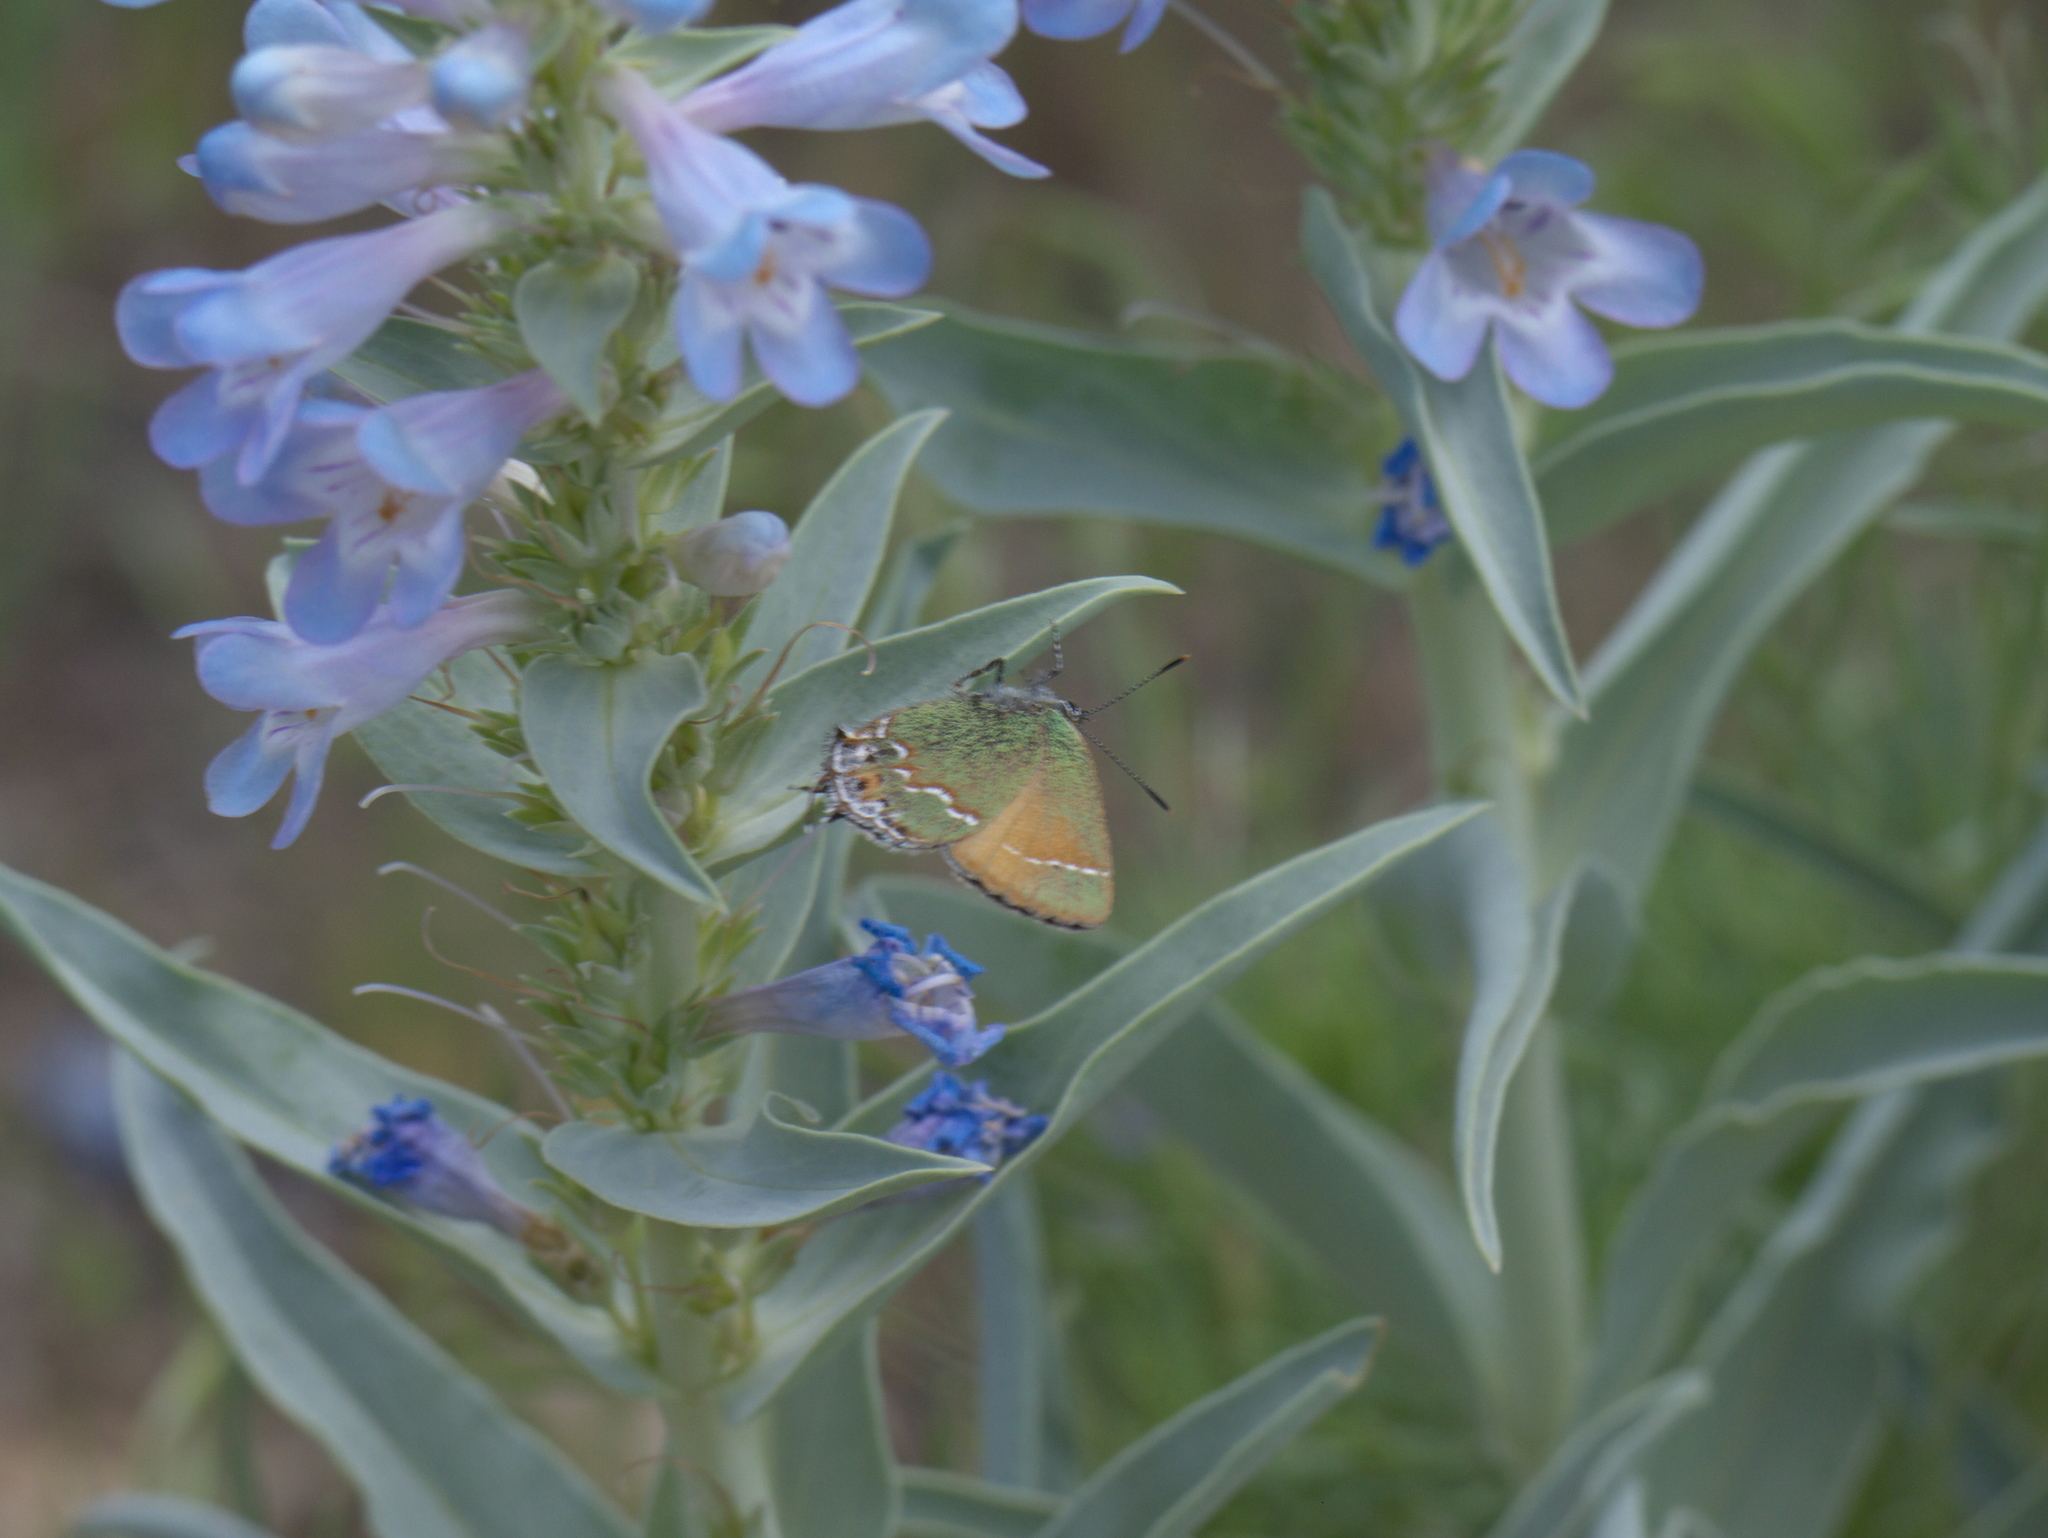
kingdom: Animalia
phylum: Arthropoda
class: Insecta
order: Lepidoptera
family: Lycaenidae
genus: Mitoura
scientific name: Mitoura siva
